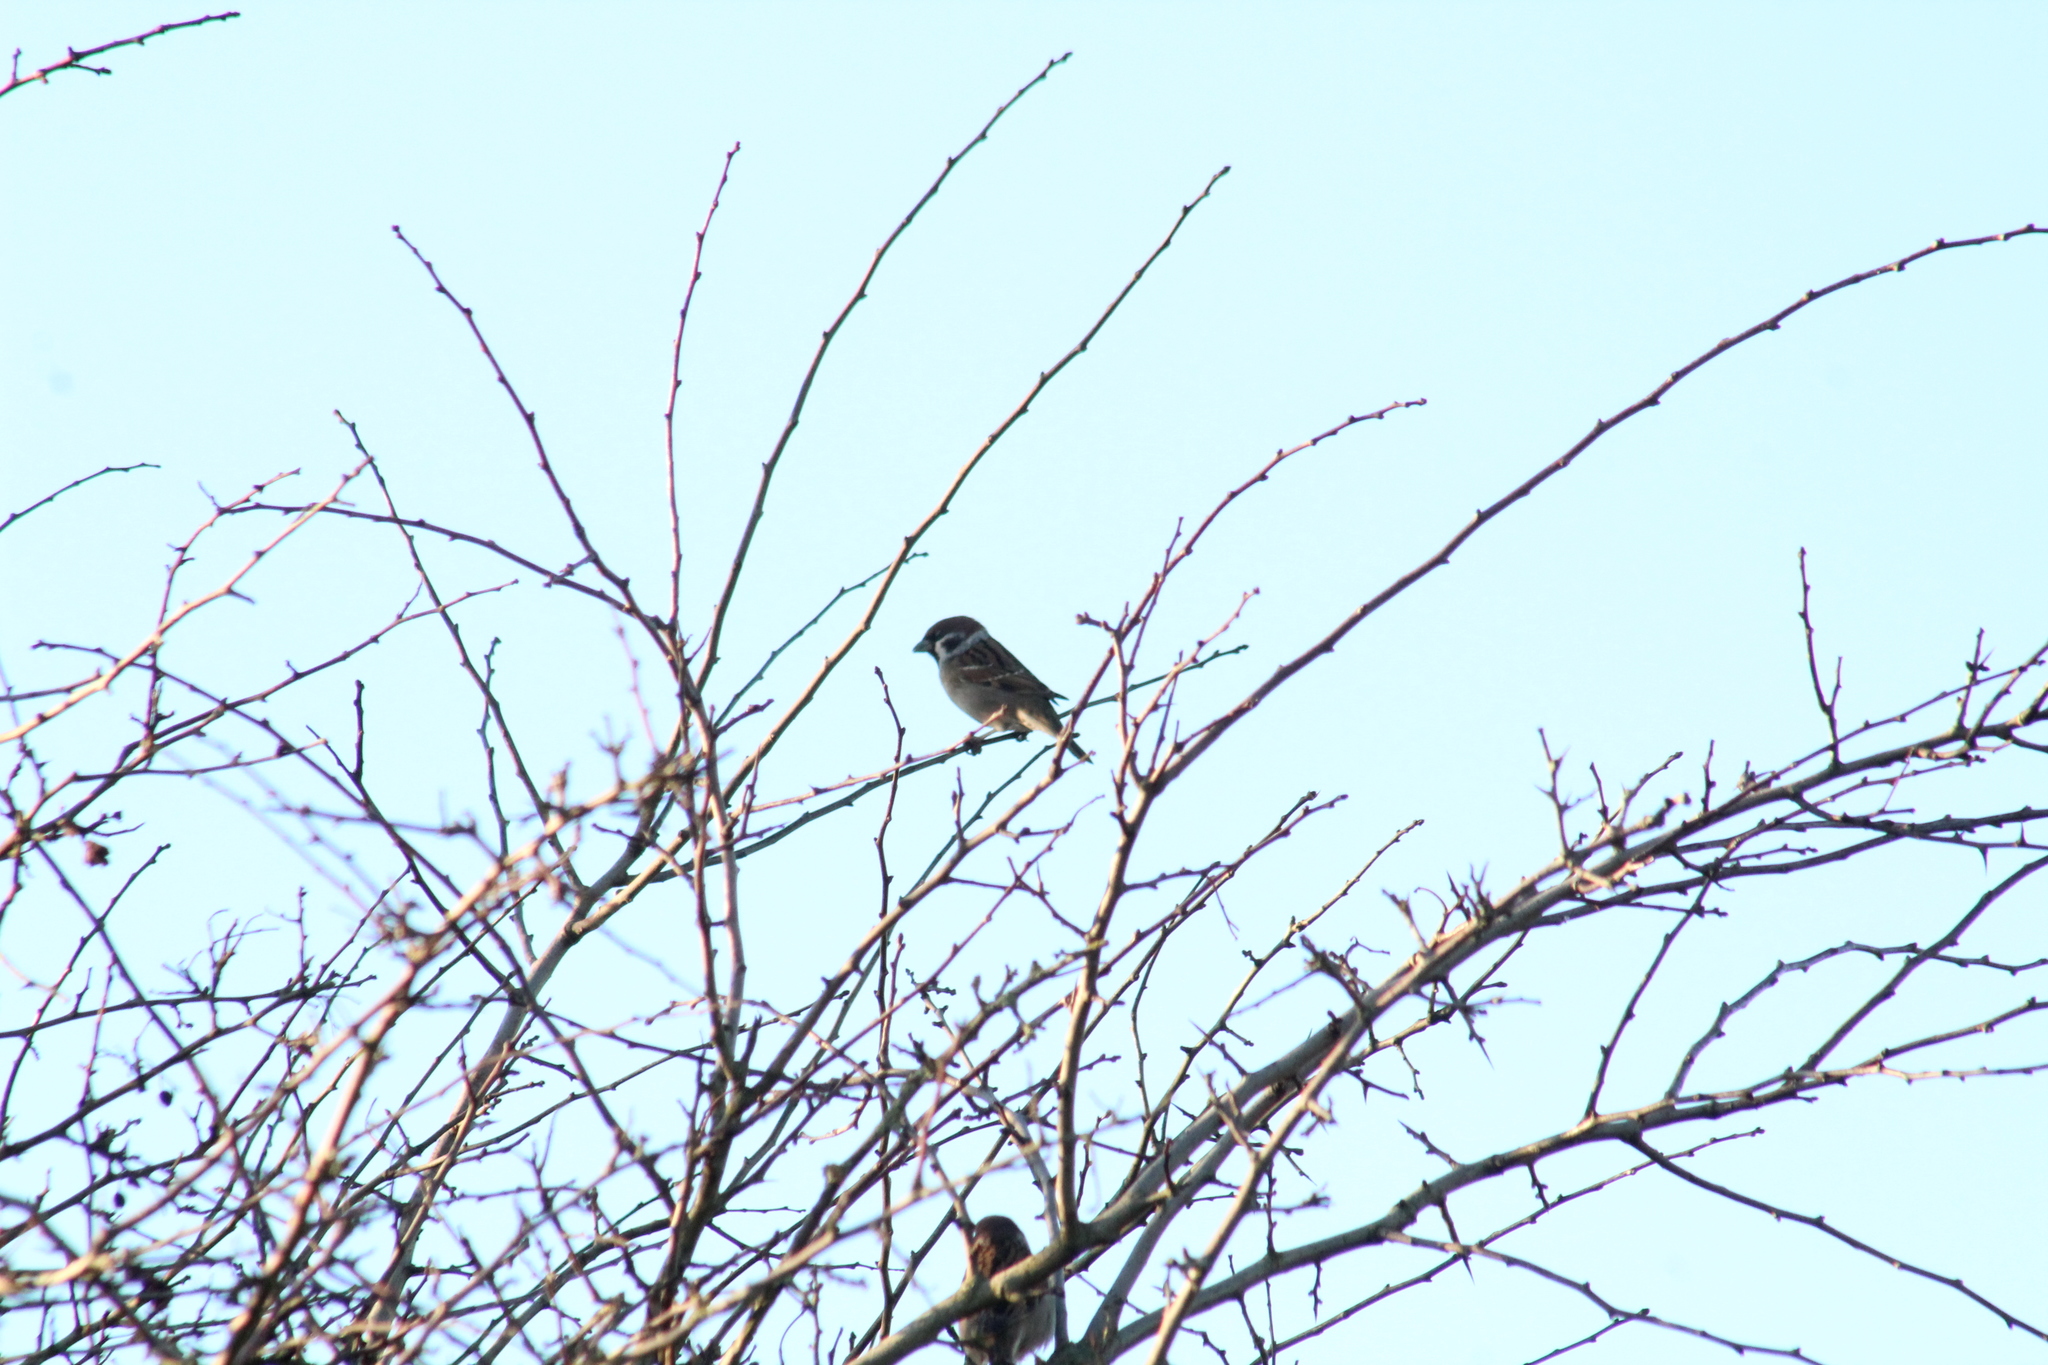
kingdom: Animalia
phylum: Chordata
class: Aves
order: Passeriformes
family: Passeridae
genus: Passer
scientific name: Passer montanus
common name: Eurasian tree sparrow
